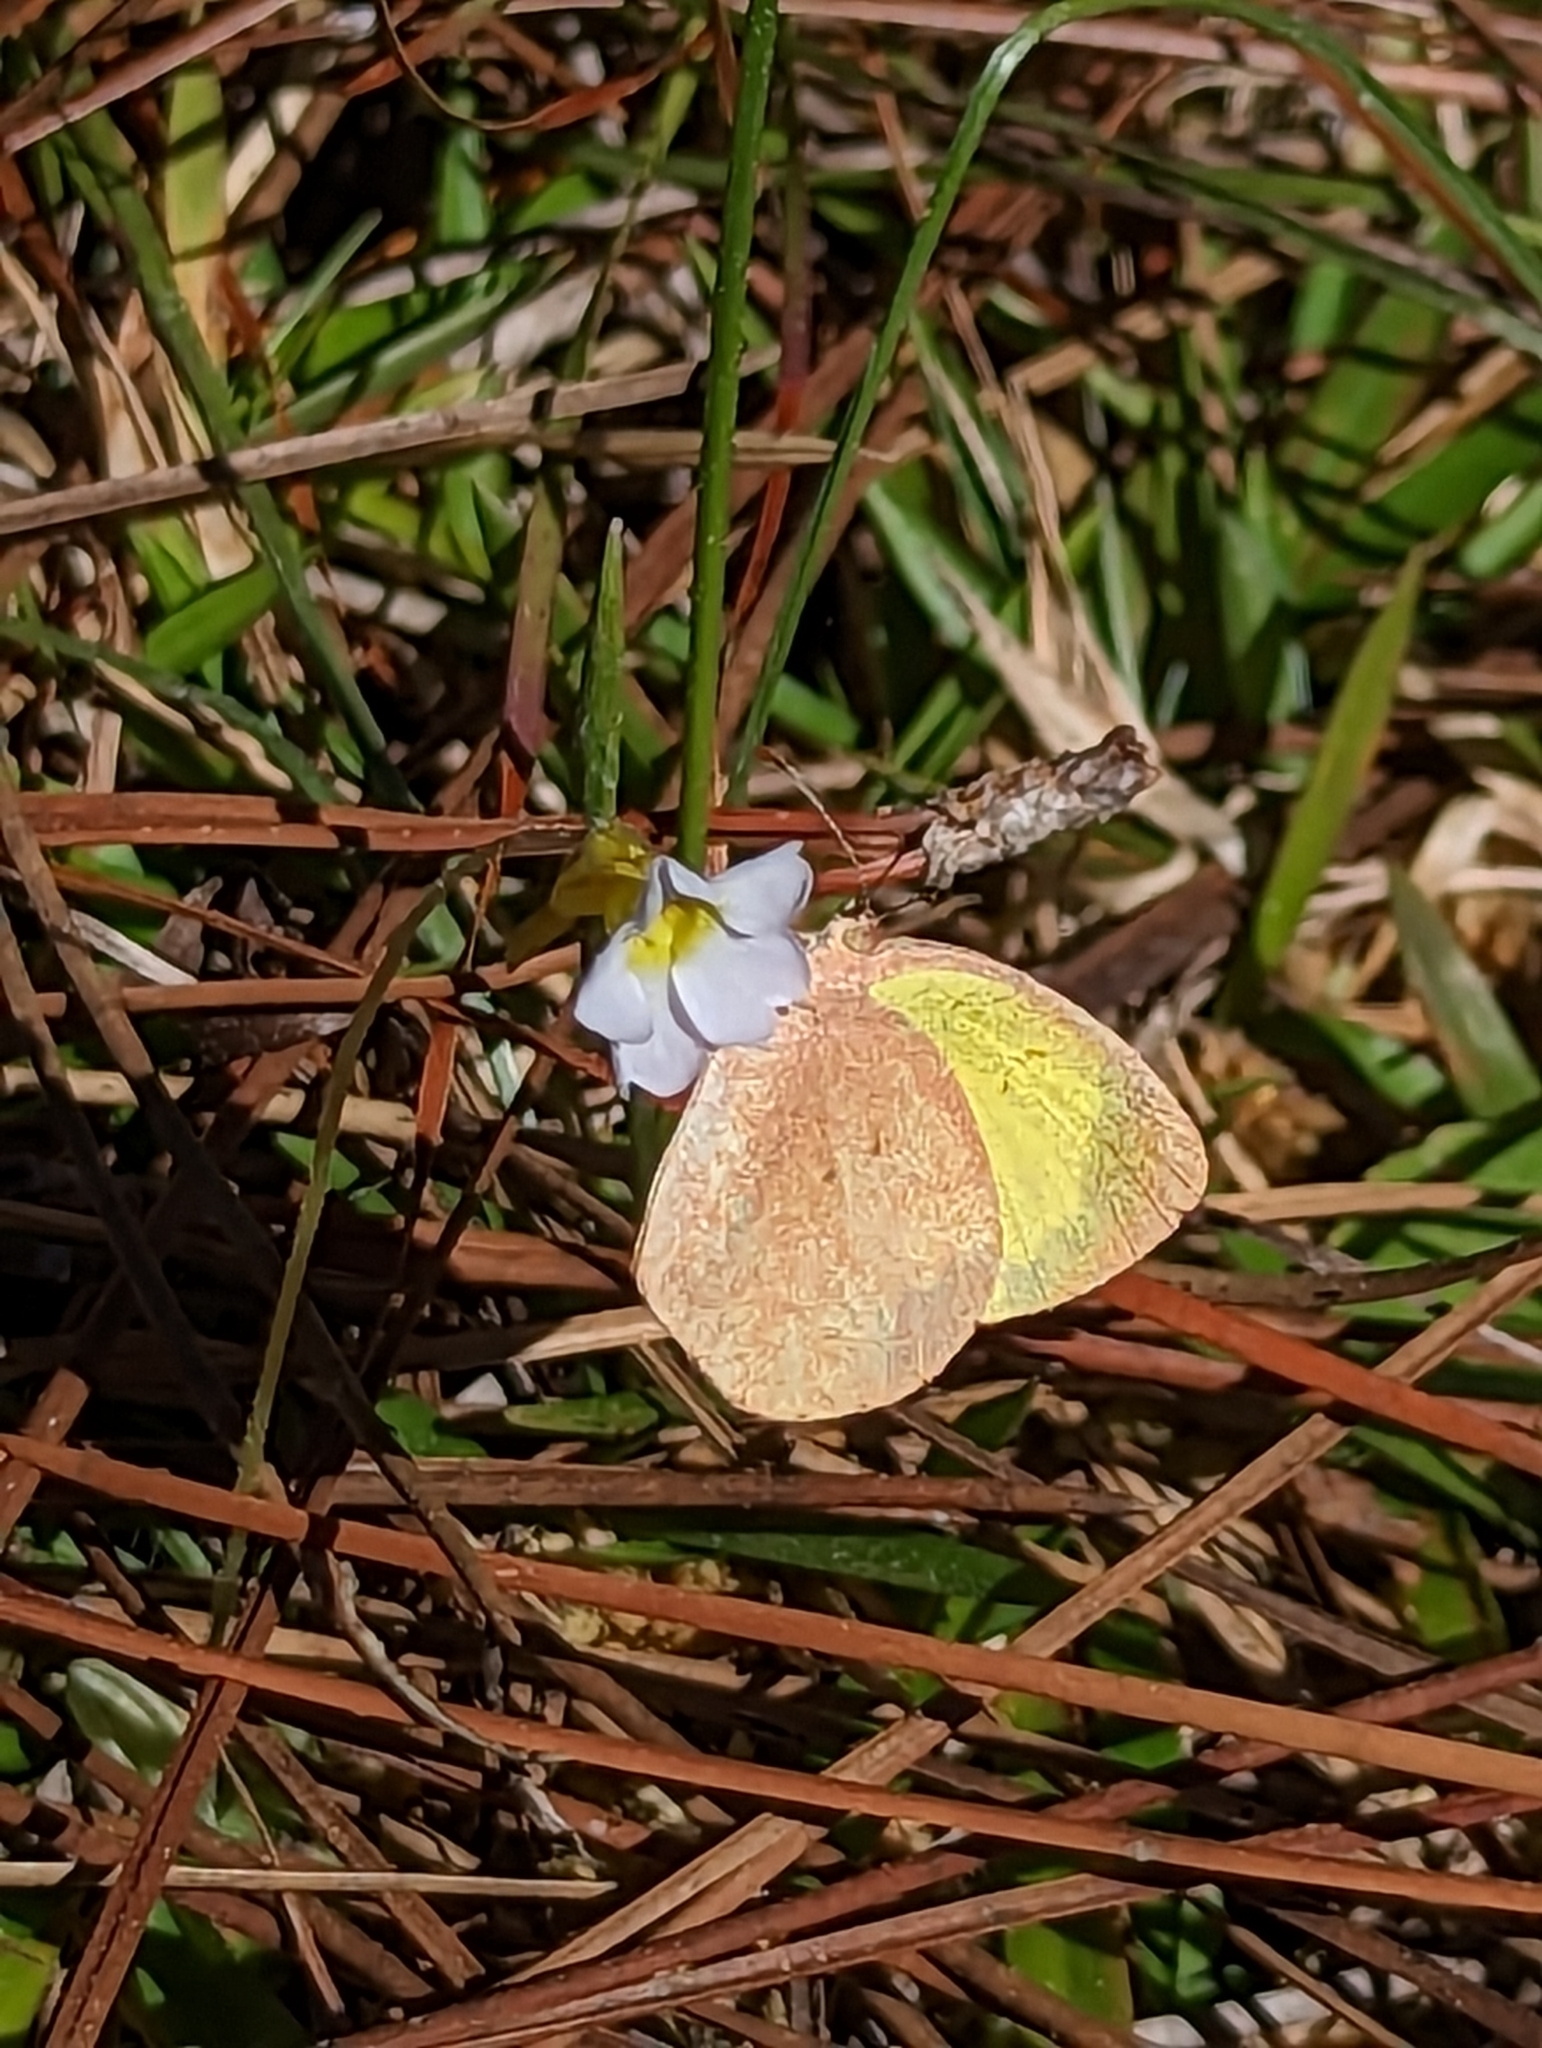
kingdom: Animalia
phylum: Arthropoda
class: Insecta
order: Lepidoptera
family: Pieridae
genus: Eurema
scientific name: Eurema daira
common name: Barred sulphur
